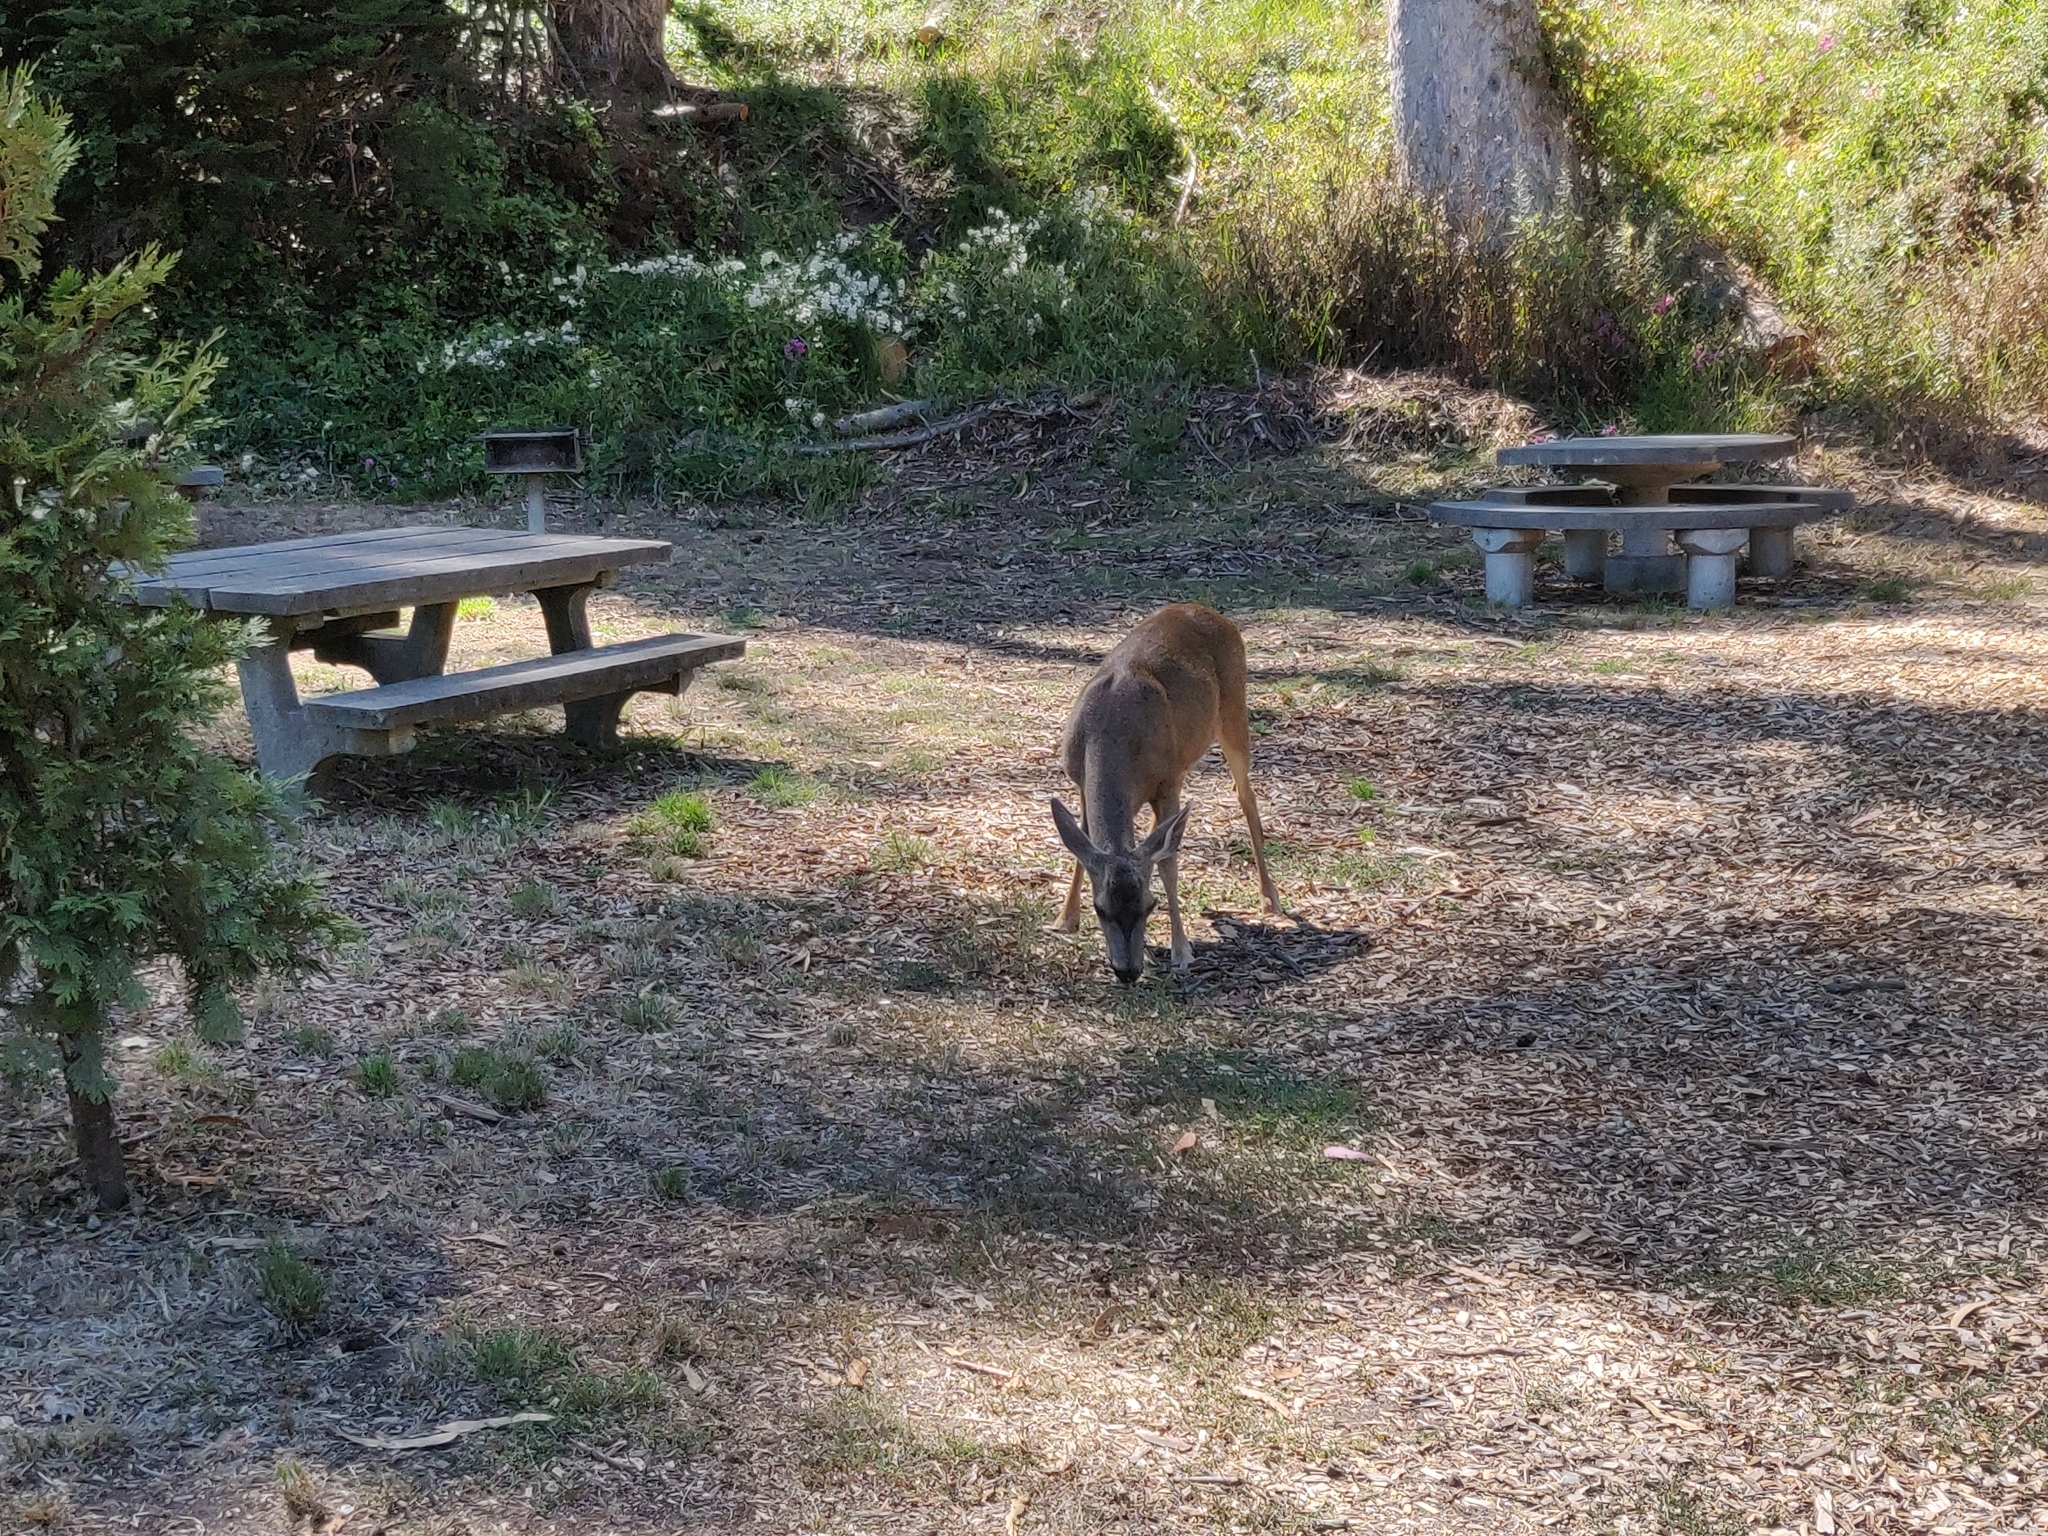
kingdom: Animalia
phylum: Chordata
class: Mammalia
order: Artiodactyla
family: Cervidae
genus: Odocoileus
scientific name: Odocoileus hemionus
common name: Mule deer
